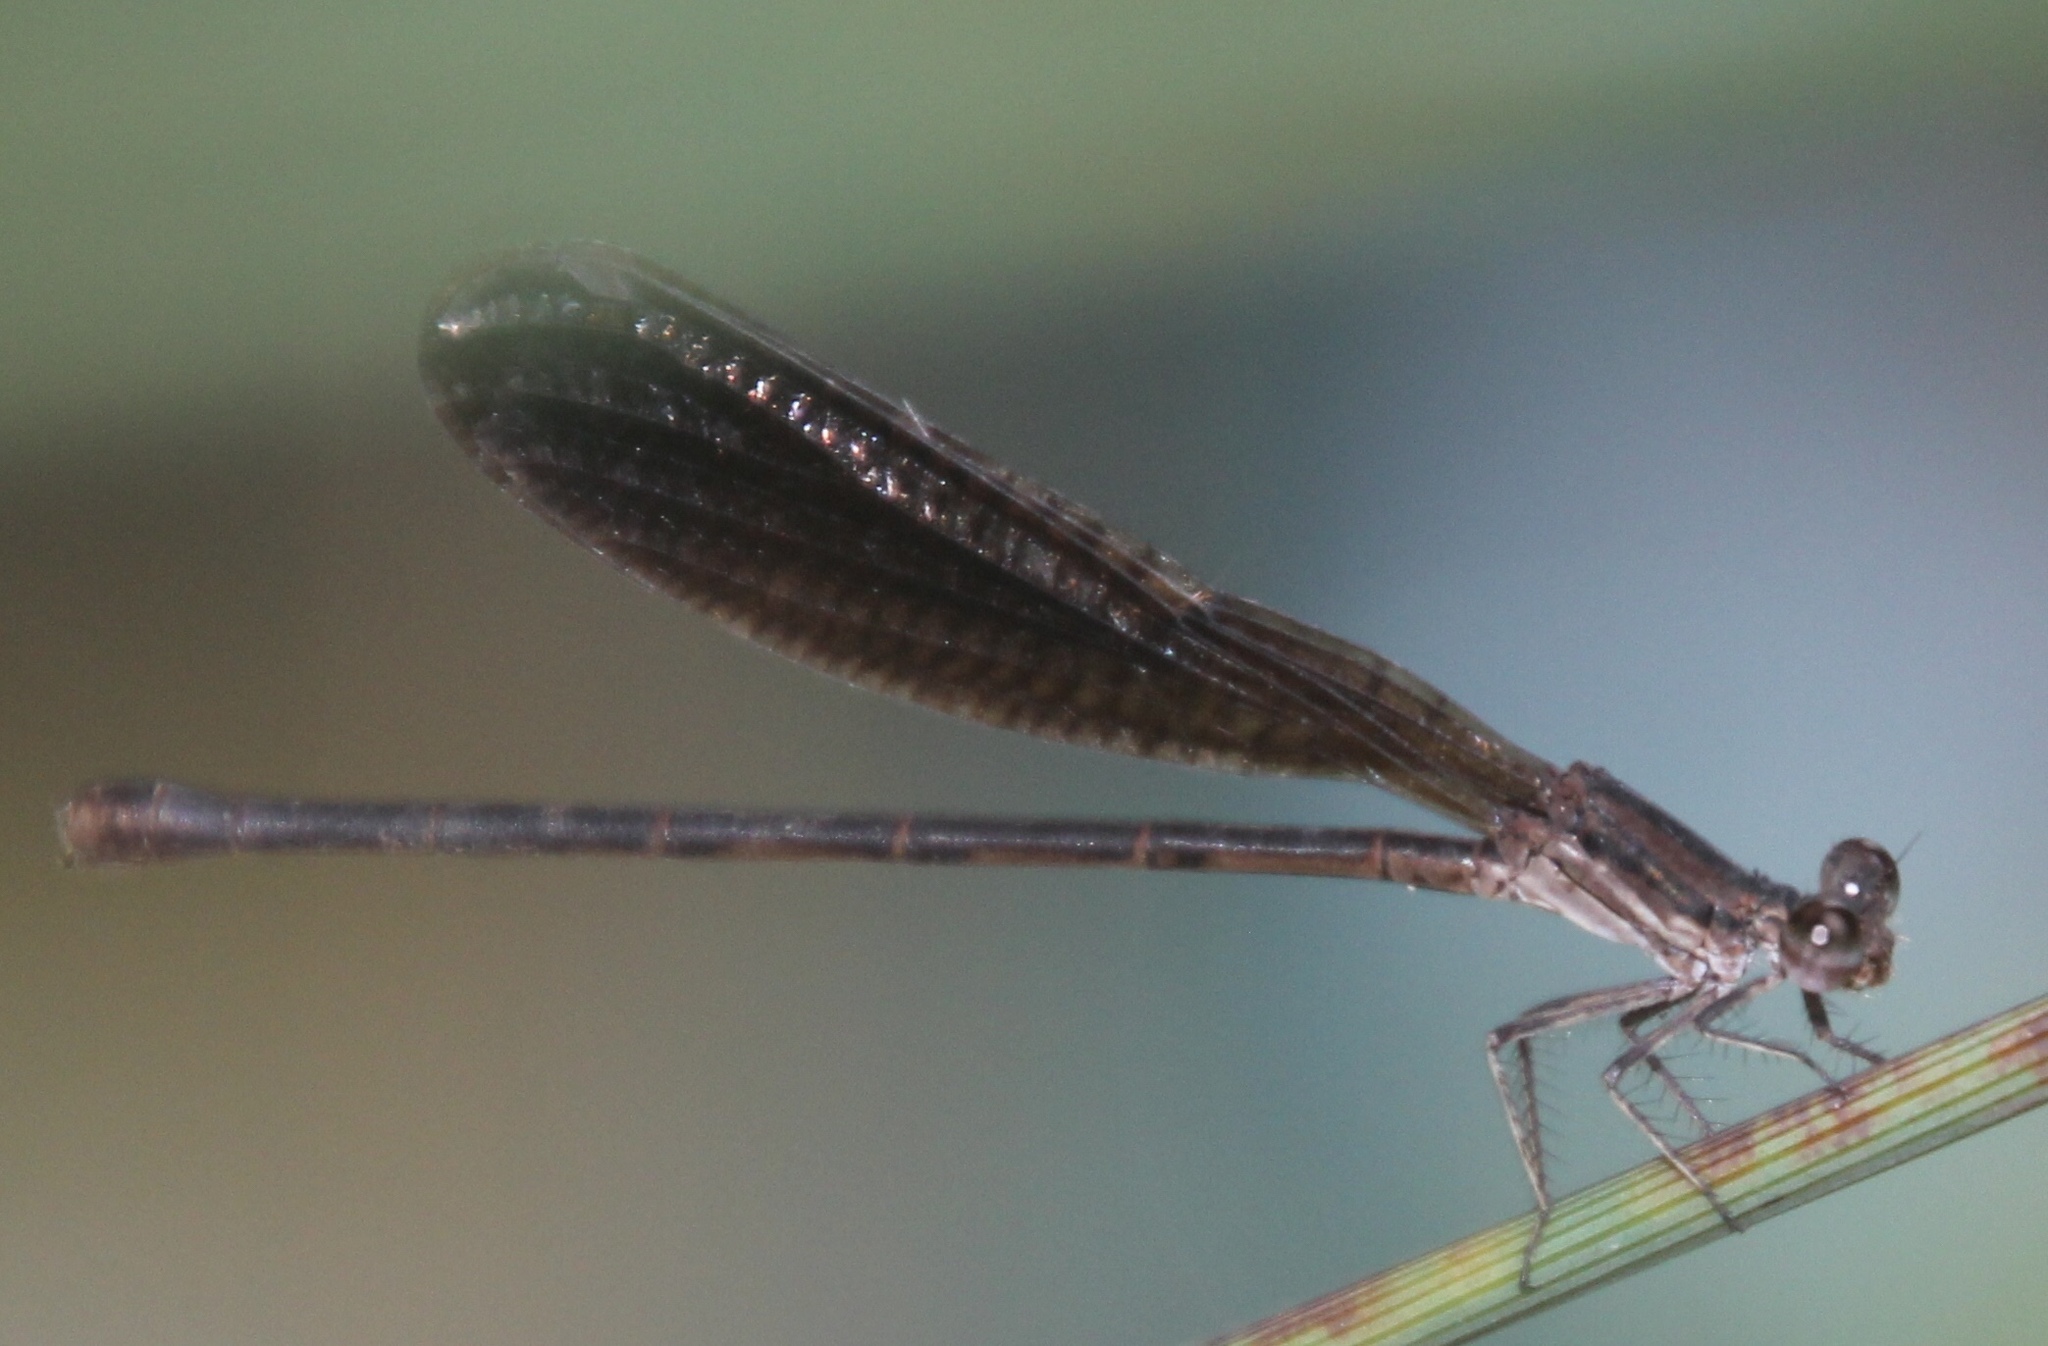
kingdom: Animalia
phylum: Arthropoda
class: Insecta
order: Odonata
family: Coenagrionidae
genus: Argia
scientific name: Argia fumipennis
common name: Variable dancer
